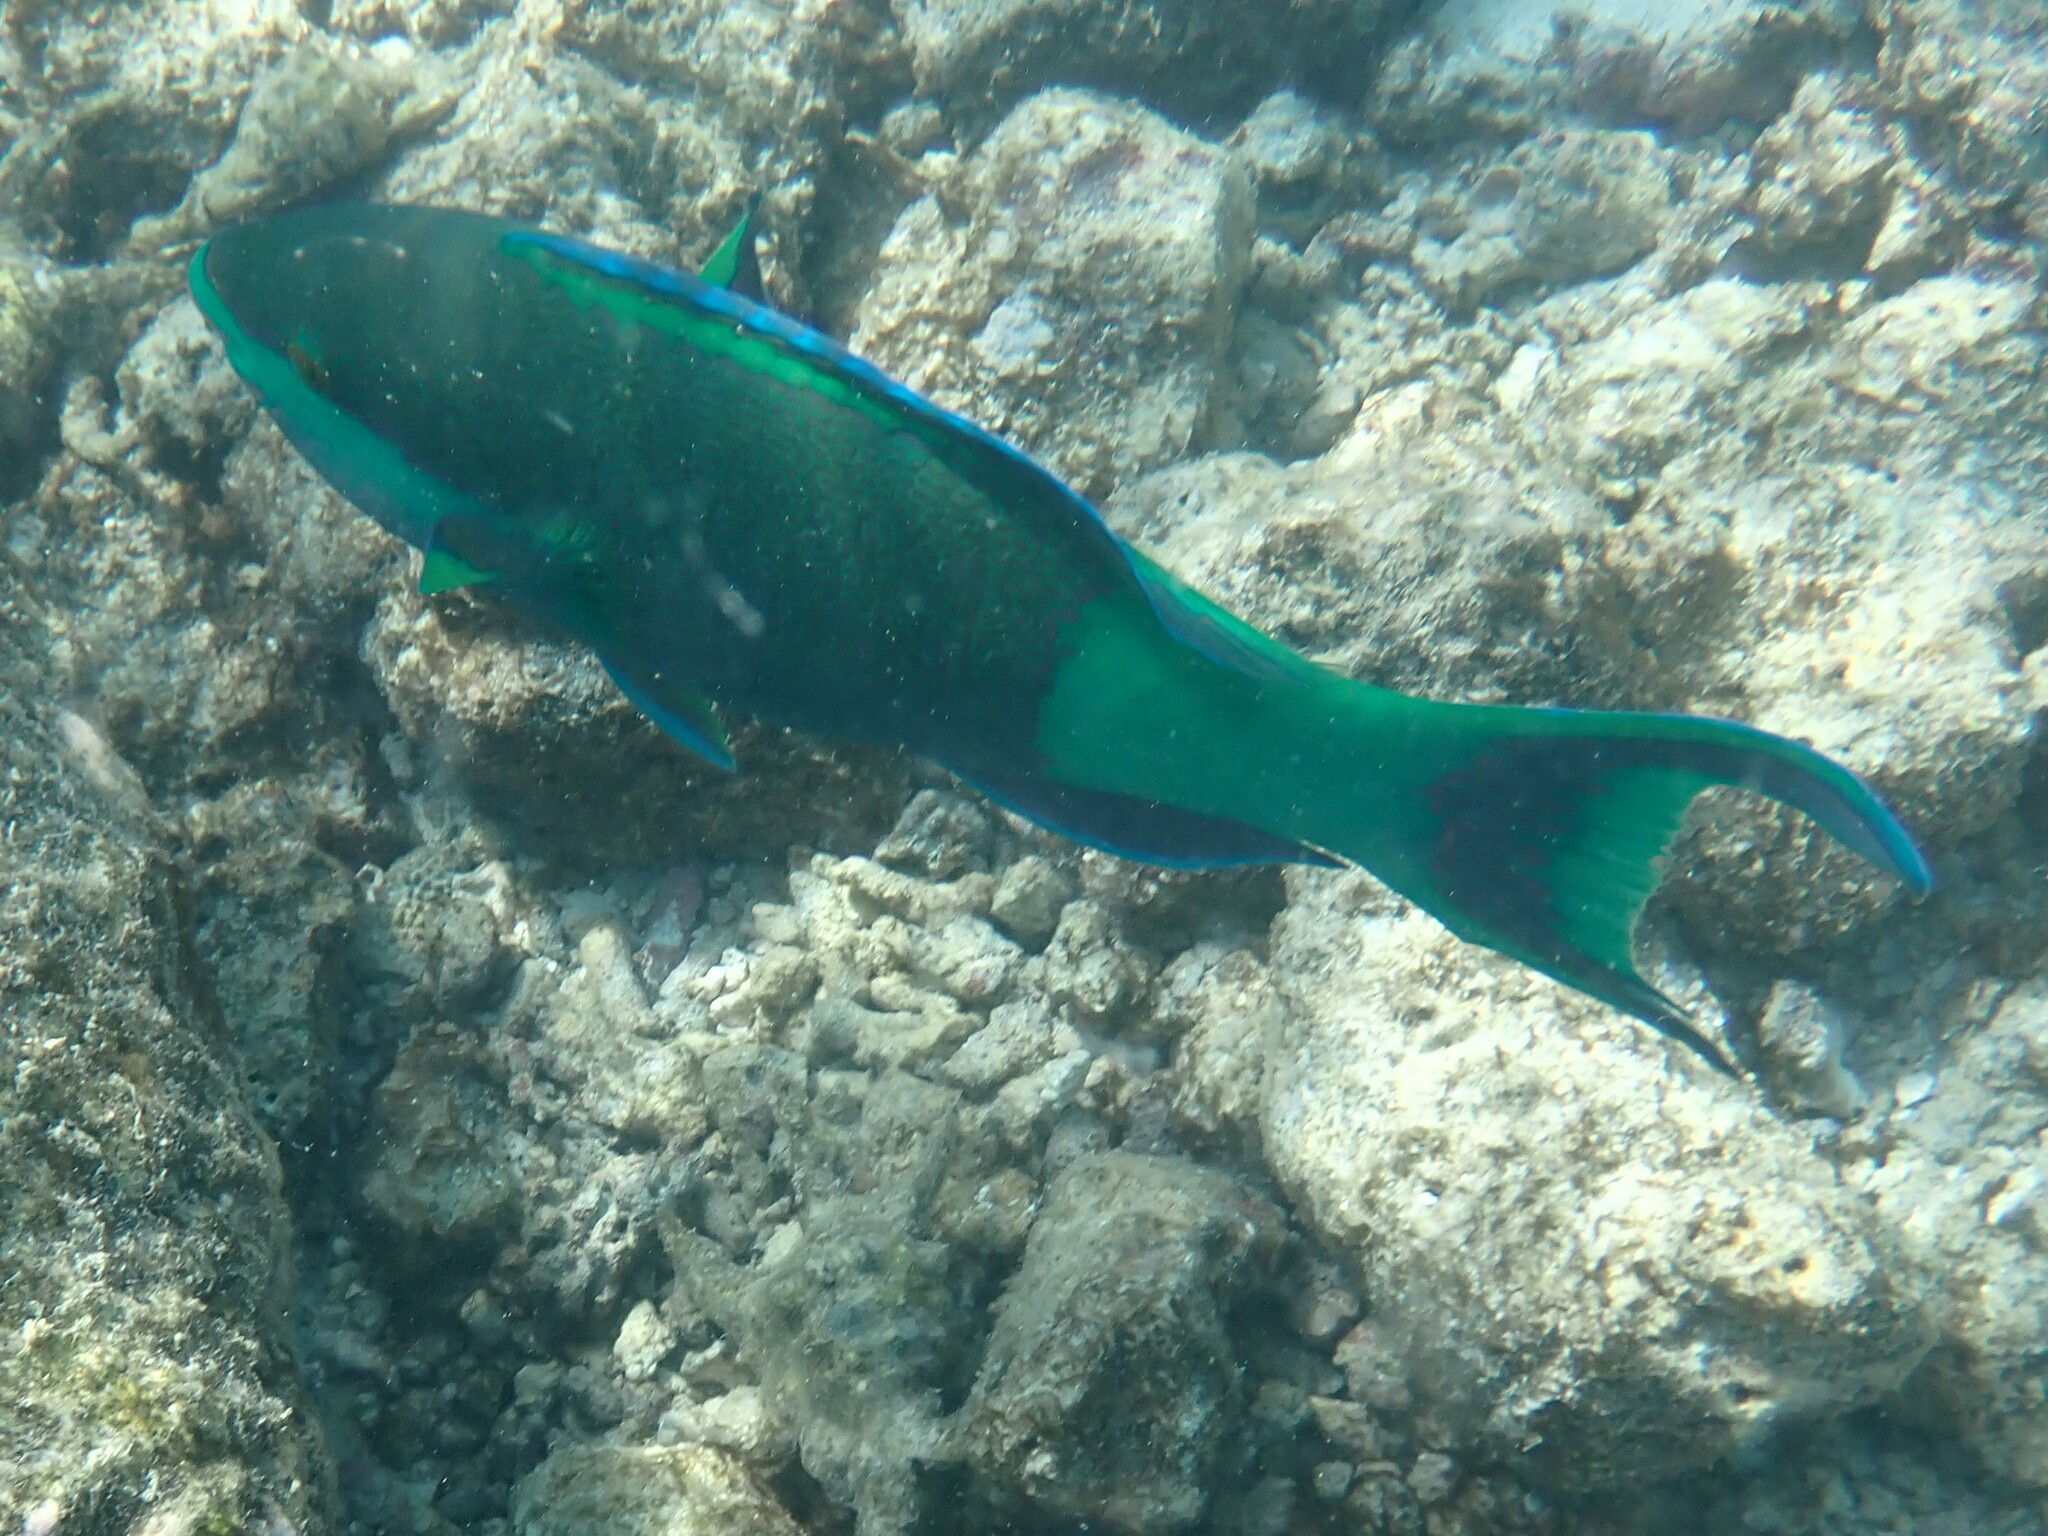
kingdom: Animalia
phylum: Chordata
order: Perciformes
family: Scaridae
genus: Scarus
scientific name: Scarus frenatus
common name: Bridled parrotfish
